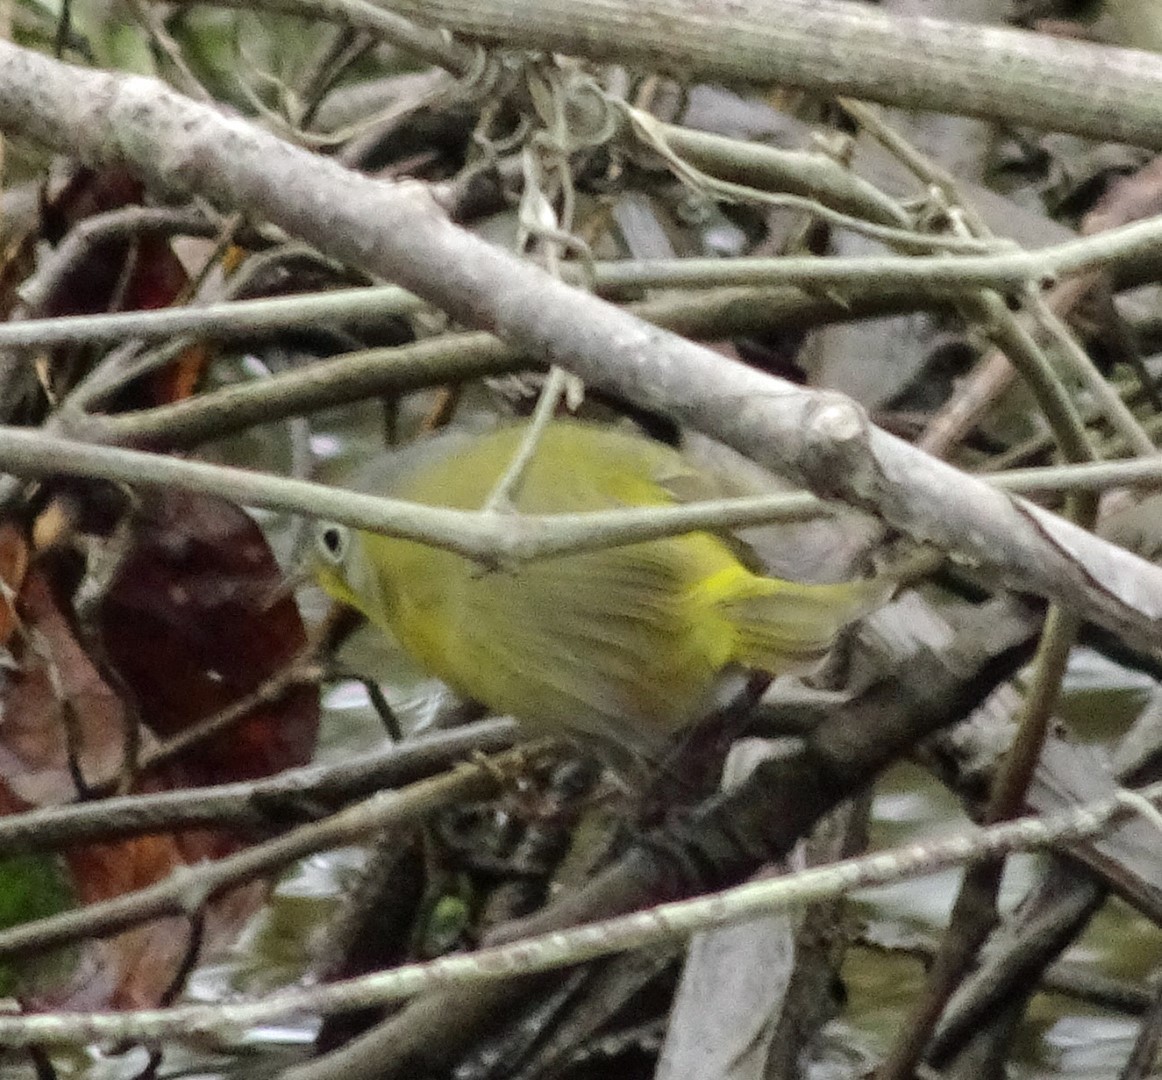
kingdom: Animalia
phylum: Chordata
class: Aves
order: Passeriformes
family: Parulidae
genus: Leiothlypis
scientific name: Leiothlypis ruficapilla
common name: Nashville warbler
